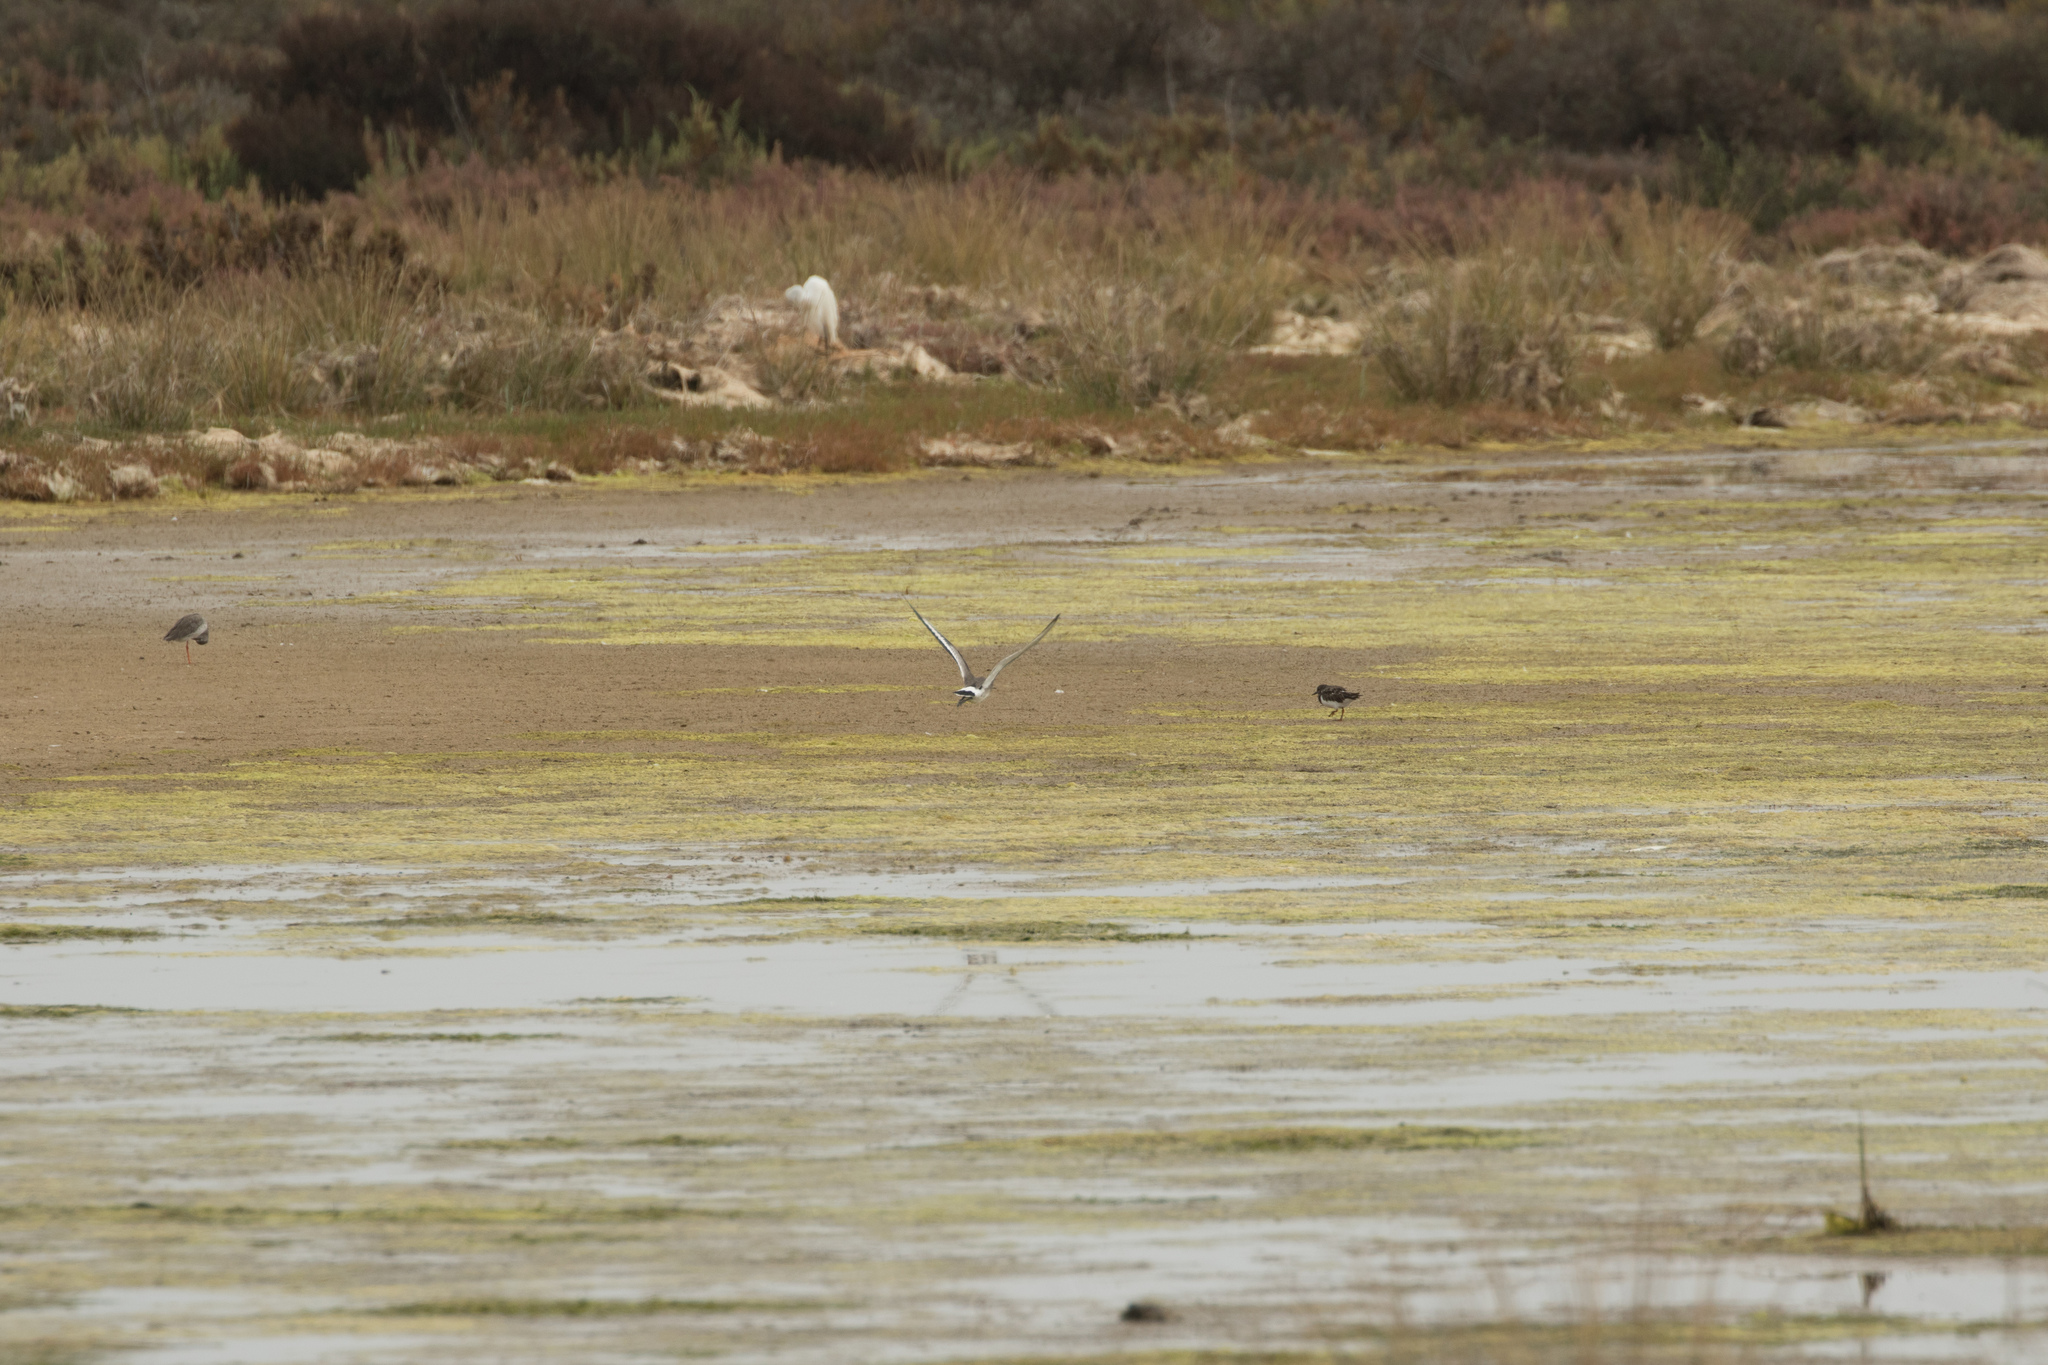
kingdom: Animalia
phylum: Chordata
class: Aves
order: Charadriiformes
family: Scolopacidae
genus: Arenaria
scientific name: Arenaria interpres
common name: Ruddy turnstone
